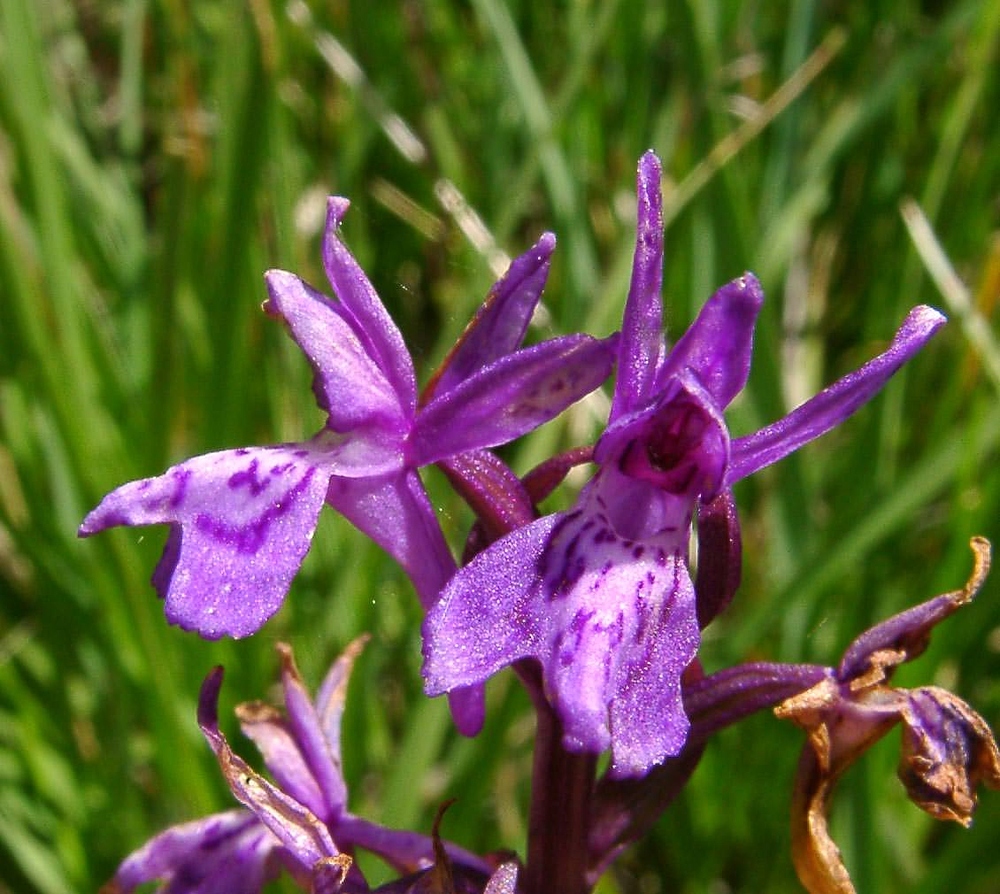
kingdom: Plantae
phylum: Tracheophyta
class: Liliopsida
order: Asparagales
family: Orchidaceae
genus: Dactylorhiza
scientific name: Dactylorhiza majalis
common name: Marsh orchid
